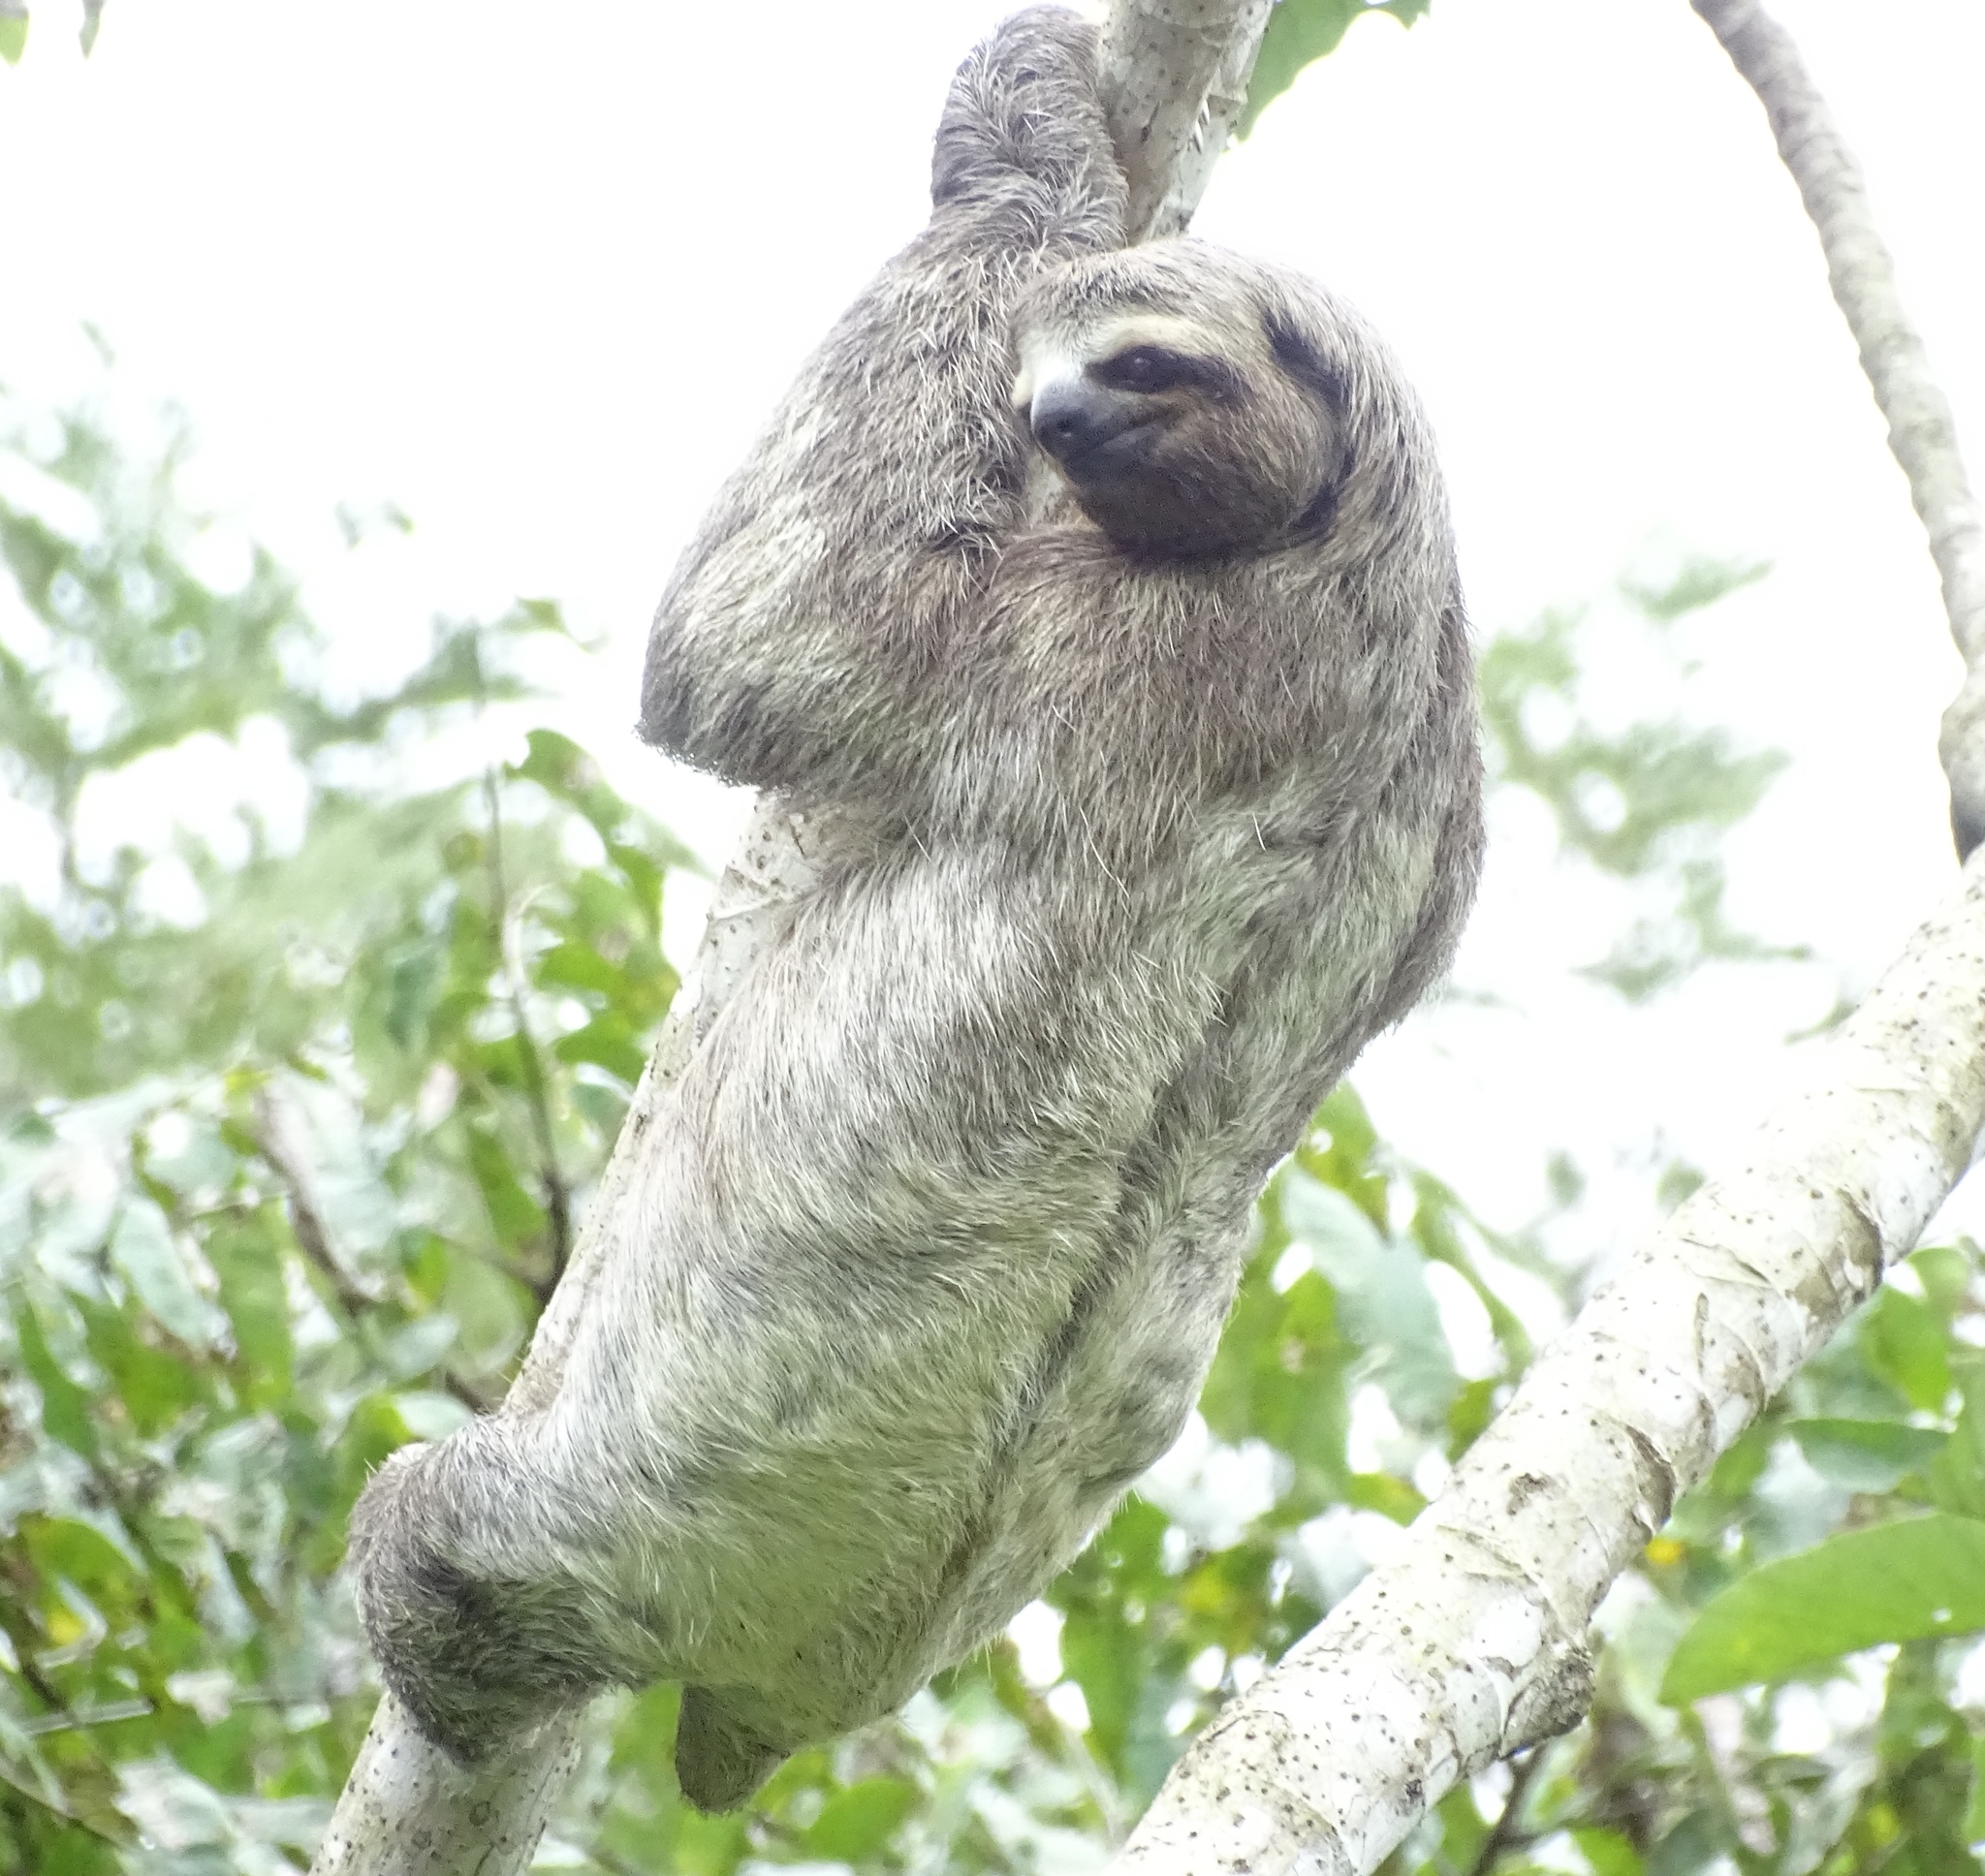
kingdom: Animalia
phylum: Chordata
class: Mammalia
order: Pilosa
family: Bradypodidae
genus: Bradypus
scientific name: Bradypus variegatus
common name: Brown-throated three-toed sloth
